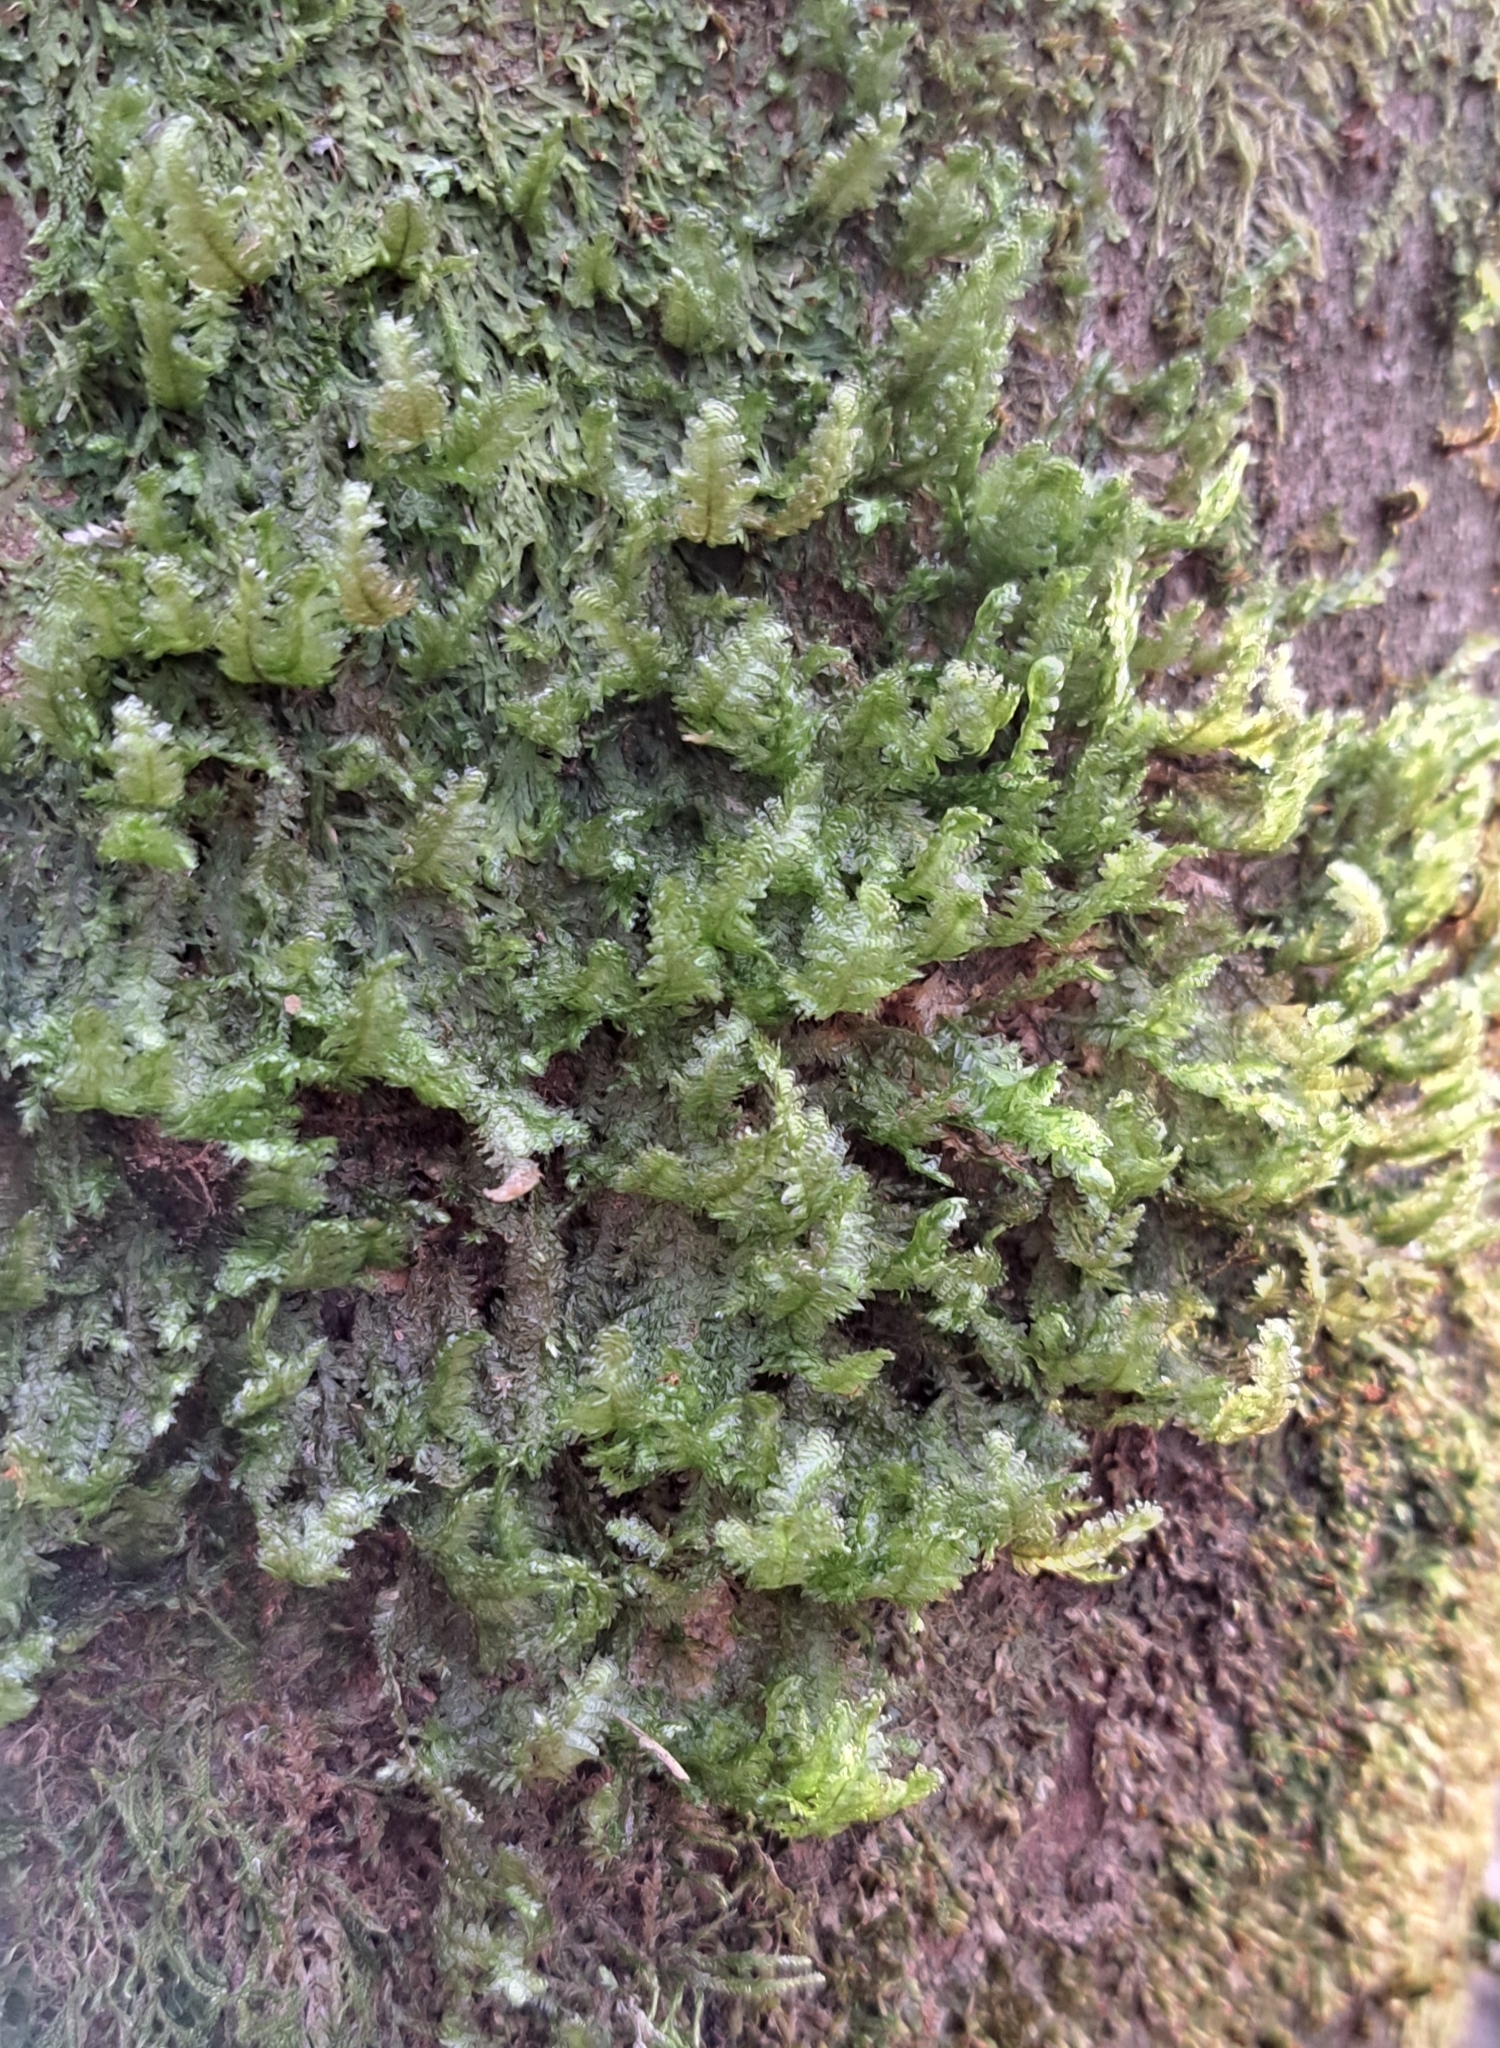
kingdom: Plantae
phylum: Bryophyta
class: Bryopsida
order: Hypnales
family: Neckeraceae
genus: Exsertotheca
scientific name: Exsertotheca crispa
